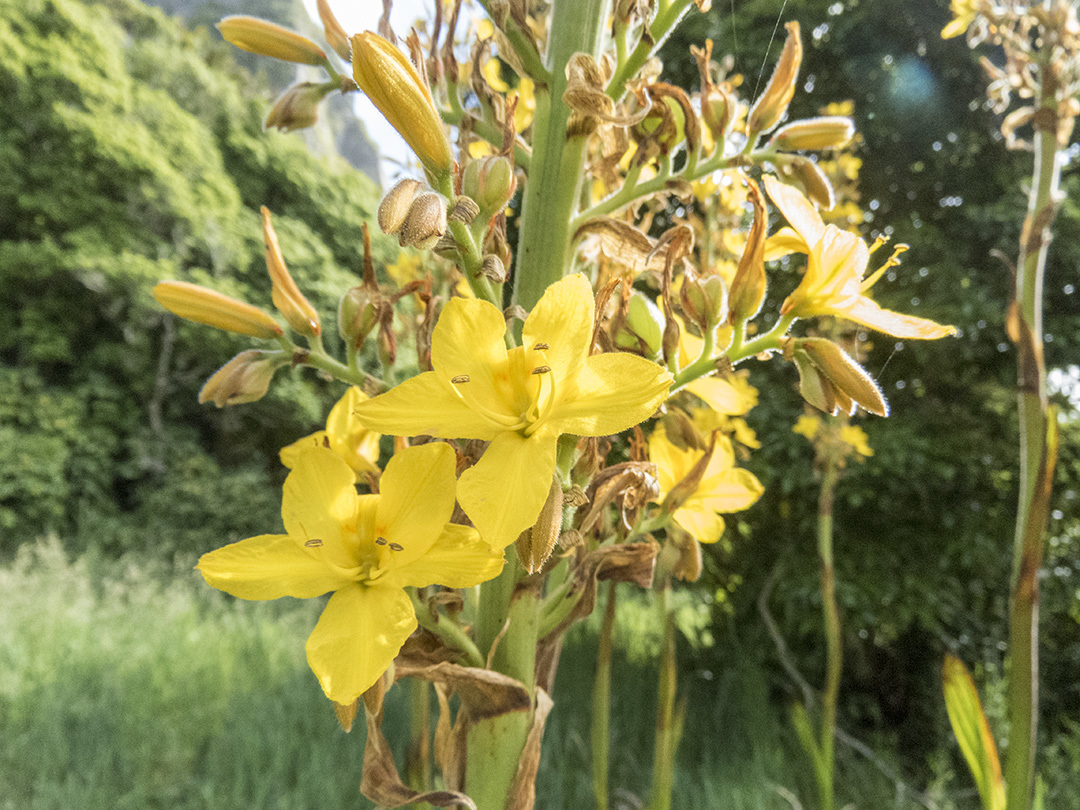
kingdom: Plantae
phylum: Tracheophyta
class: Liliopsida
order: Commelinales
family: Haemodoraceae
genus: Wachendorfia
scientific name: Wachendorfia thyrsiflora
